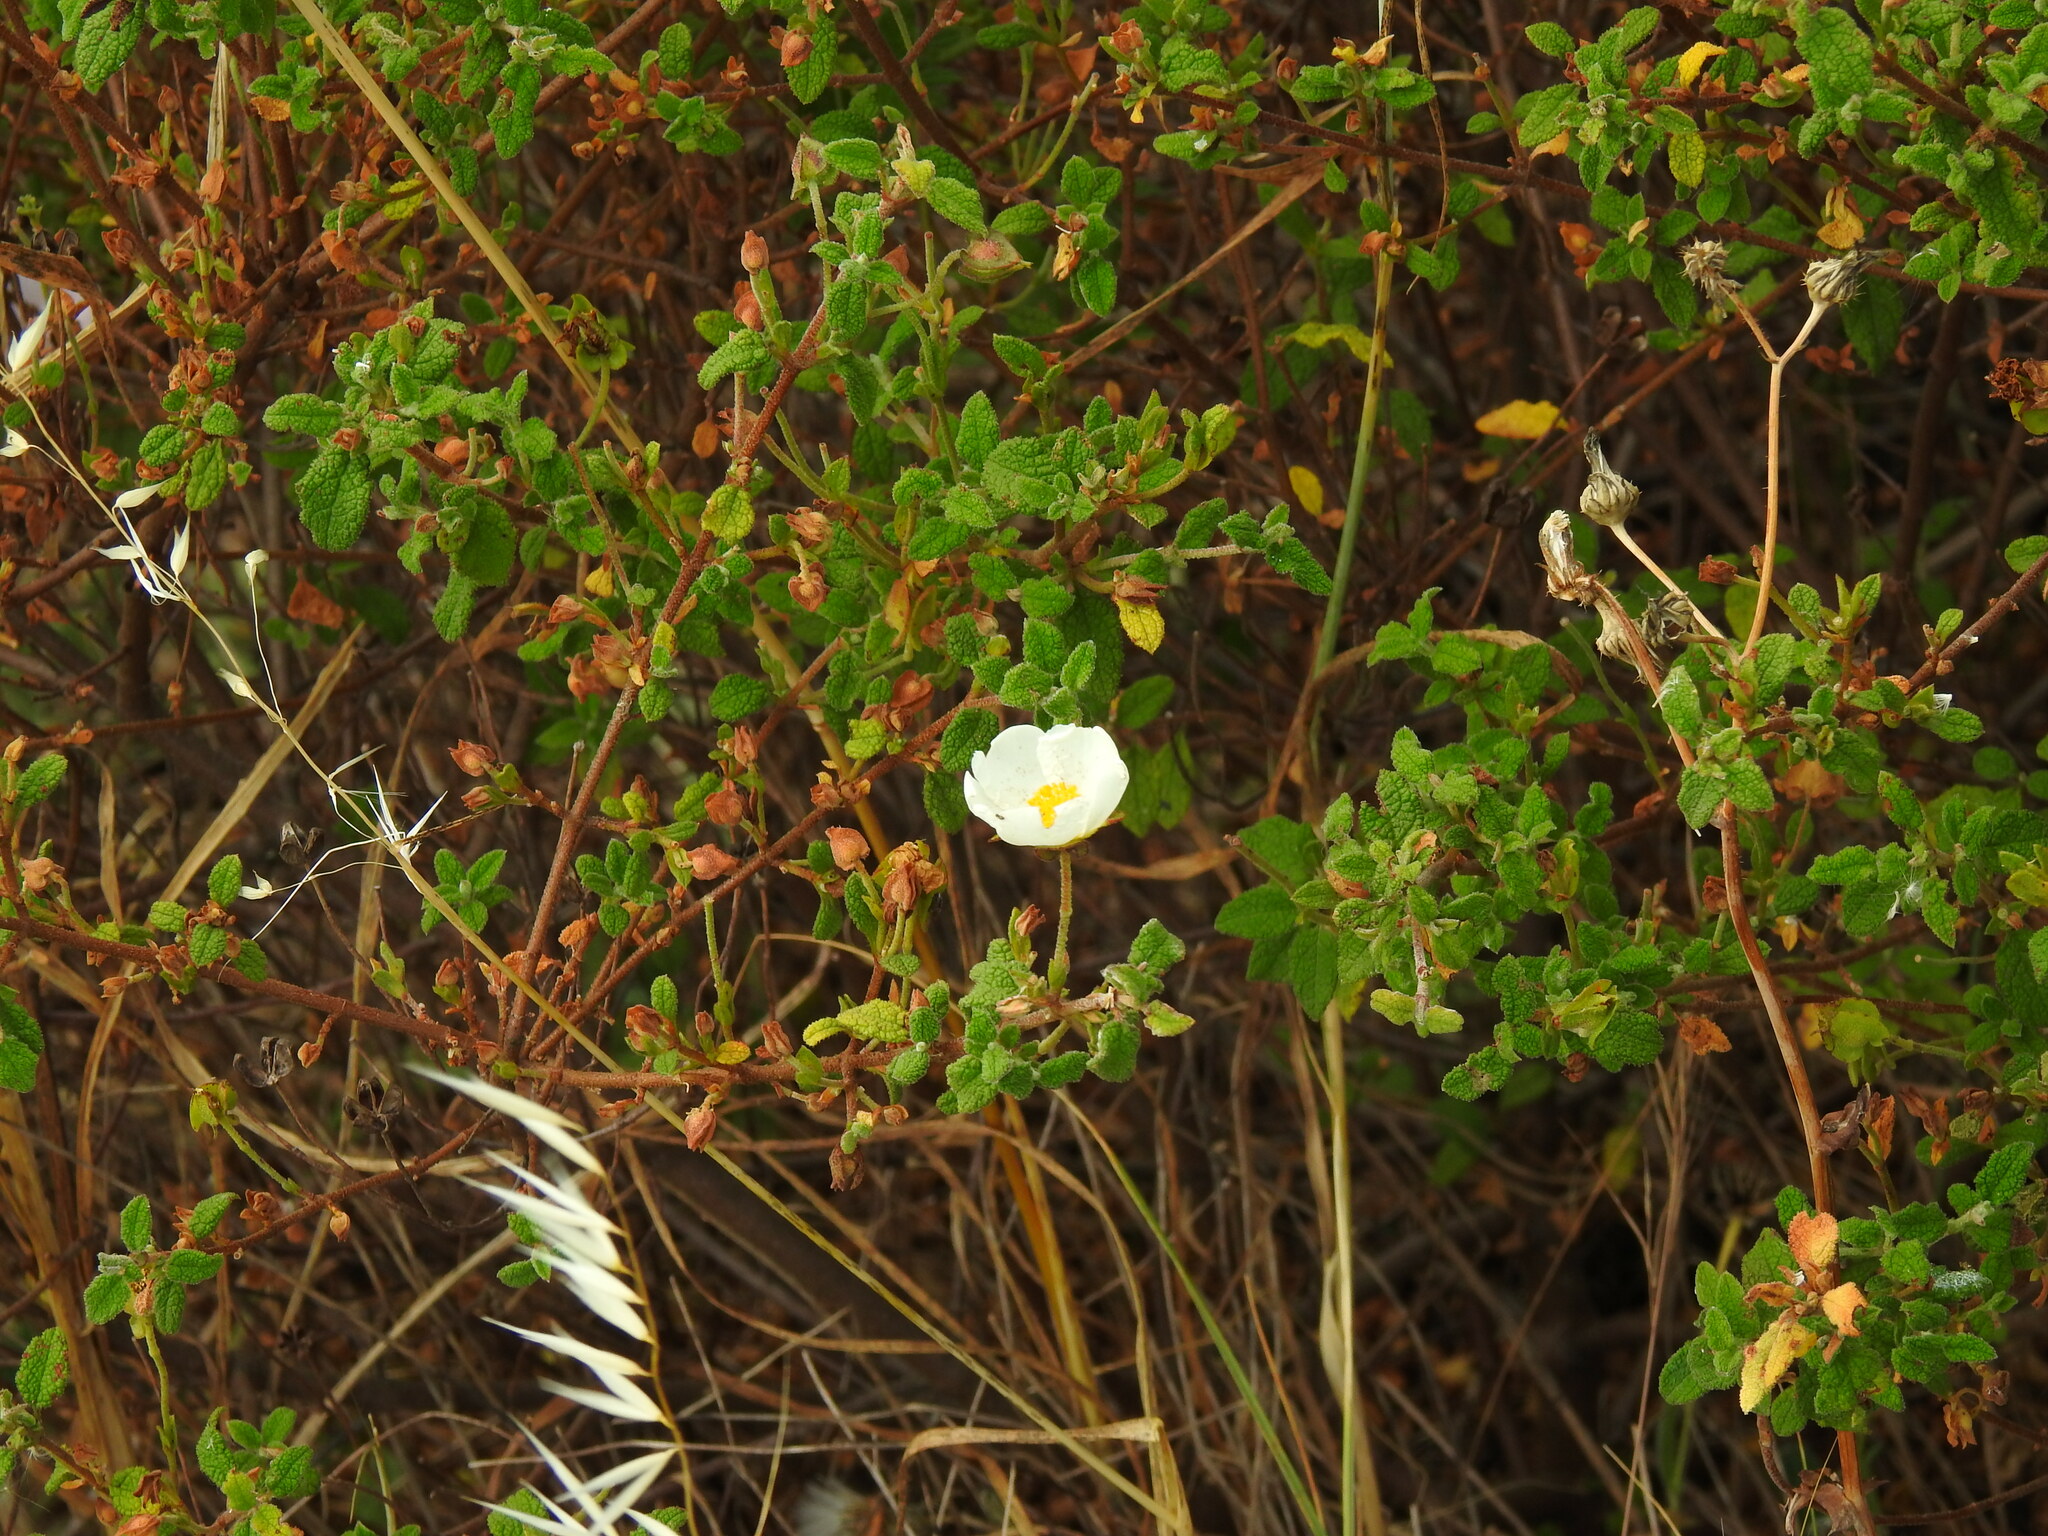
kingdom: Plantae
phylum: Tracheophyta
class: Magnoliopsida
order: Malvales
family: Cistaceae
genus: Cistus
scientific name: Cistus salviifolius
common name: Salvia cistus
